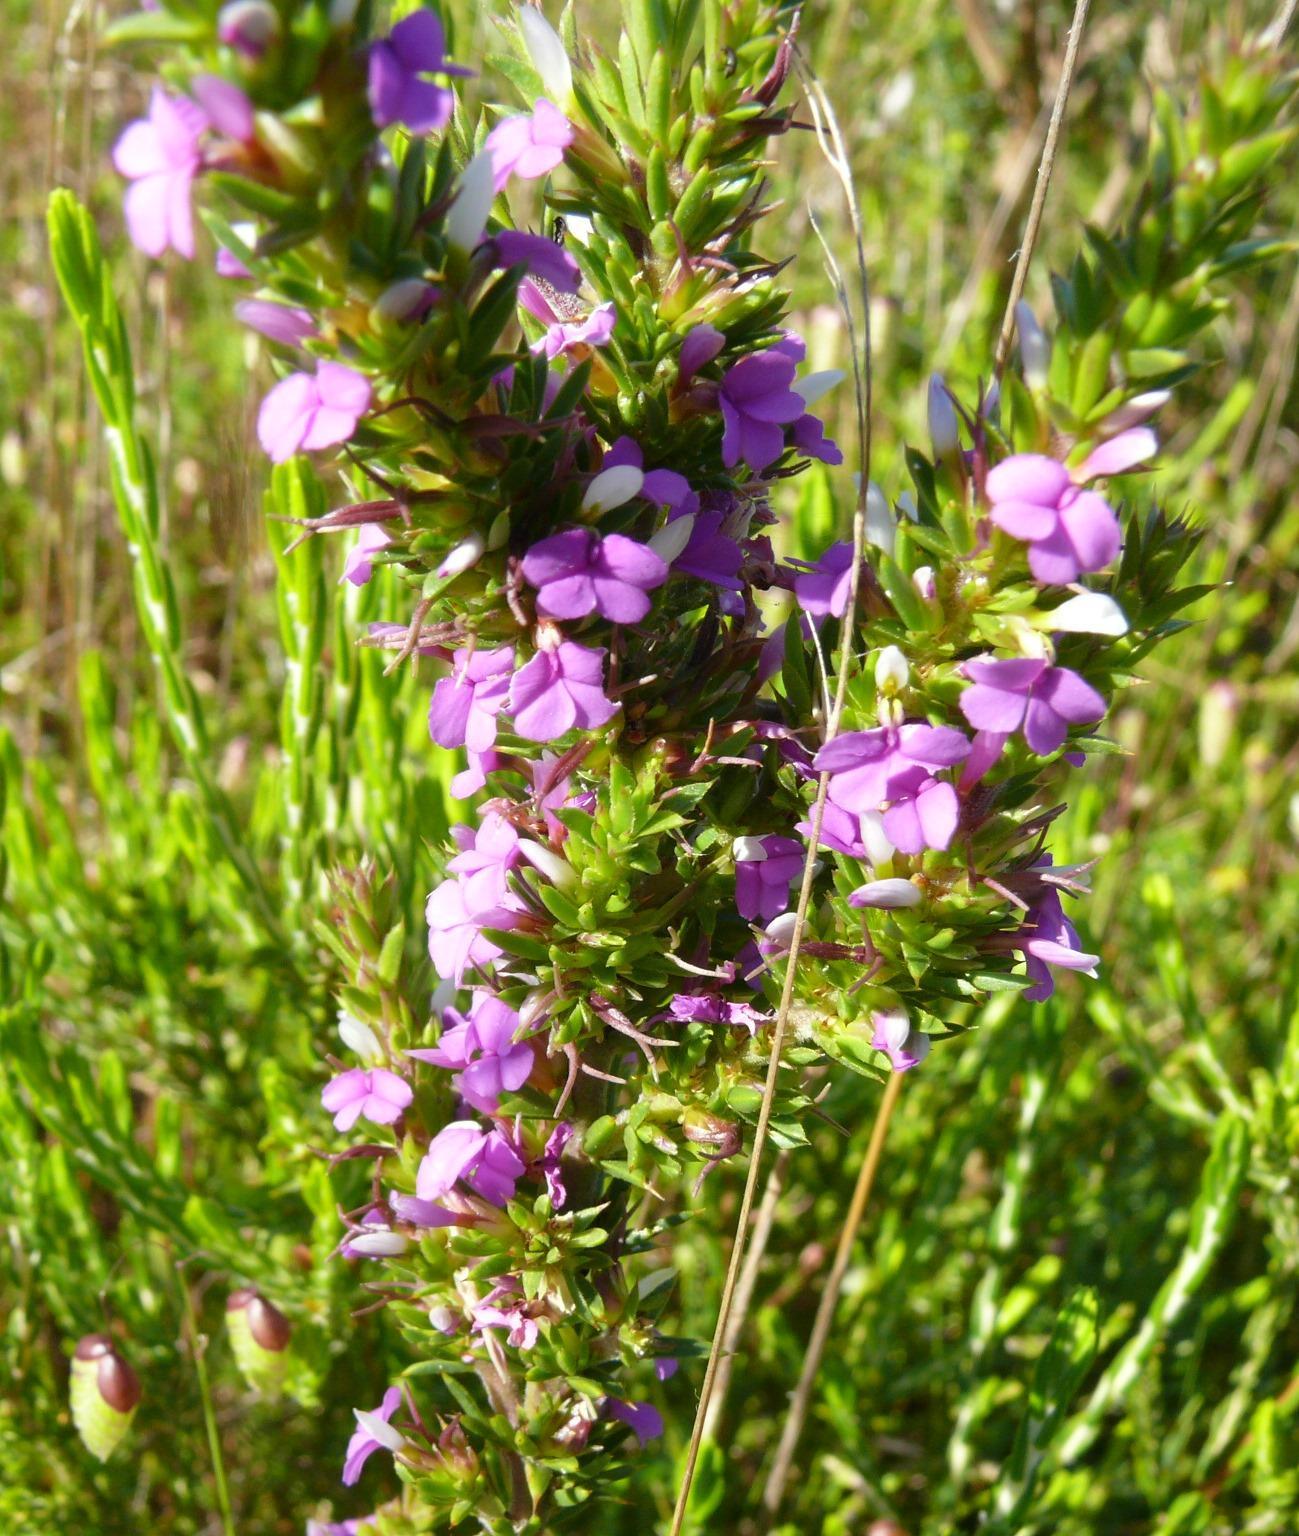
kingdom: Plantae
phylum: Tracheophyta
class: Magnoliopsida
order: Fabales
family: Polygalaceae
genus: Muraltia
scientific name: Muraltia heisteria
